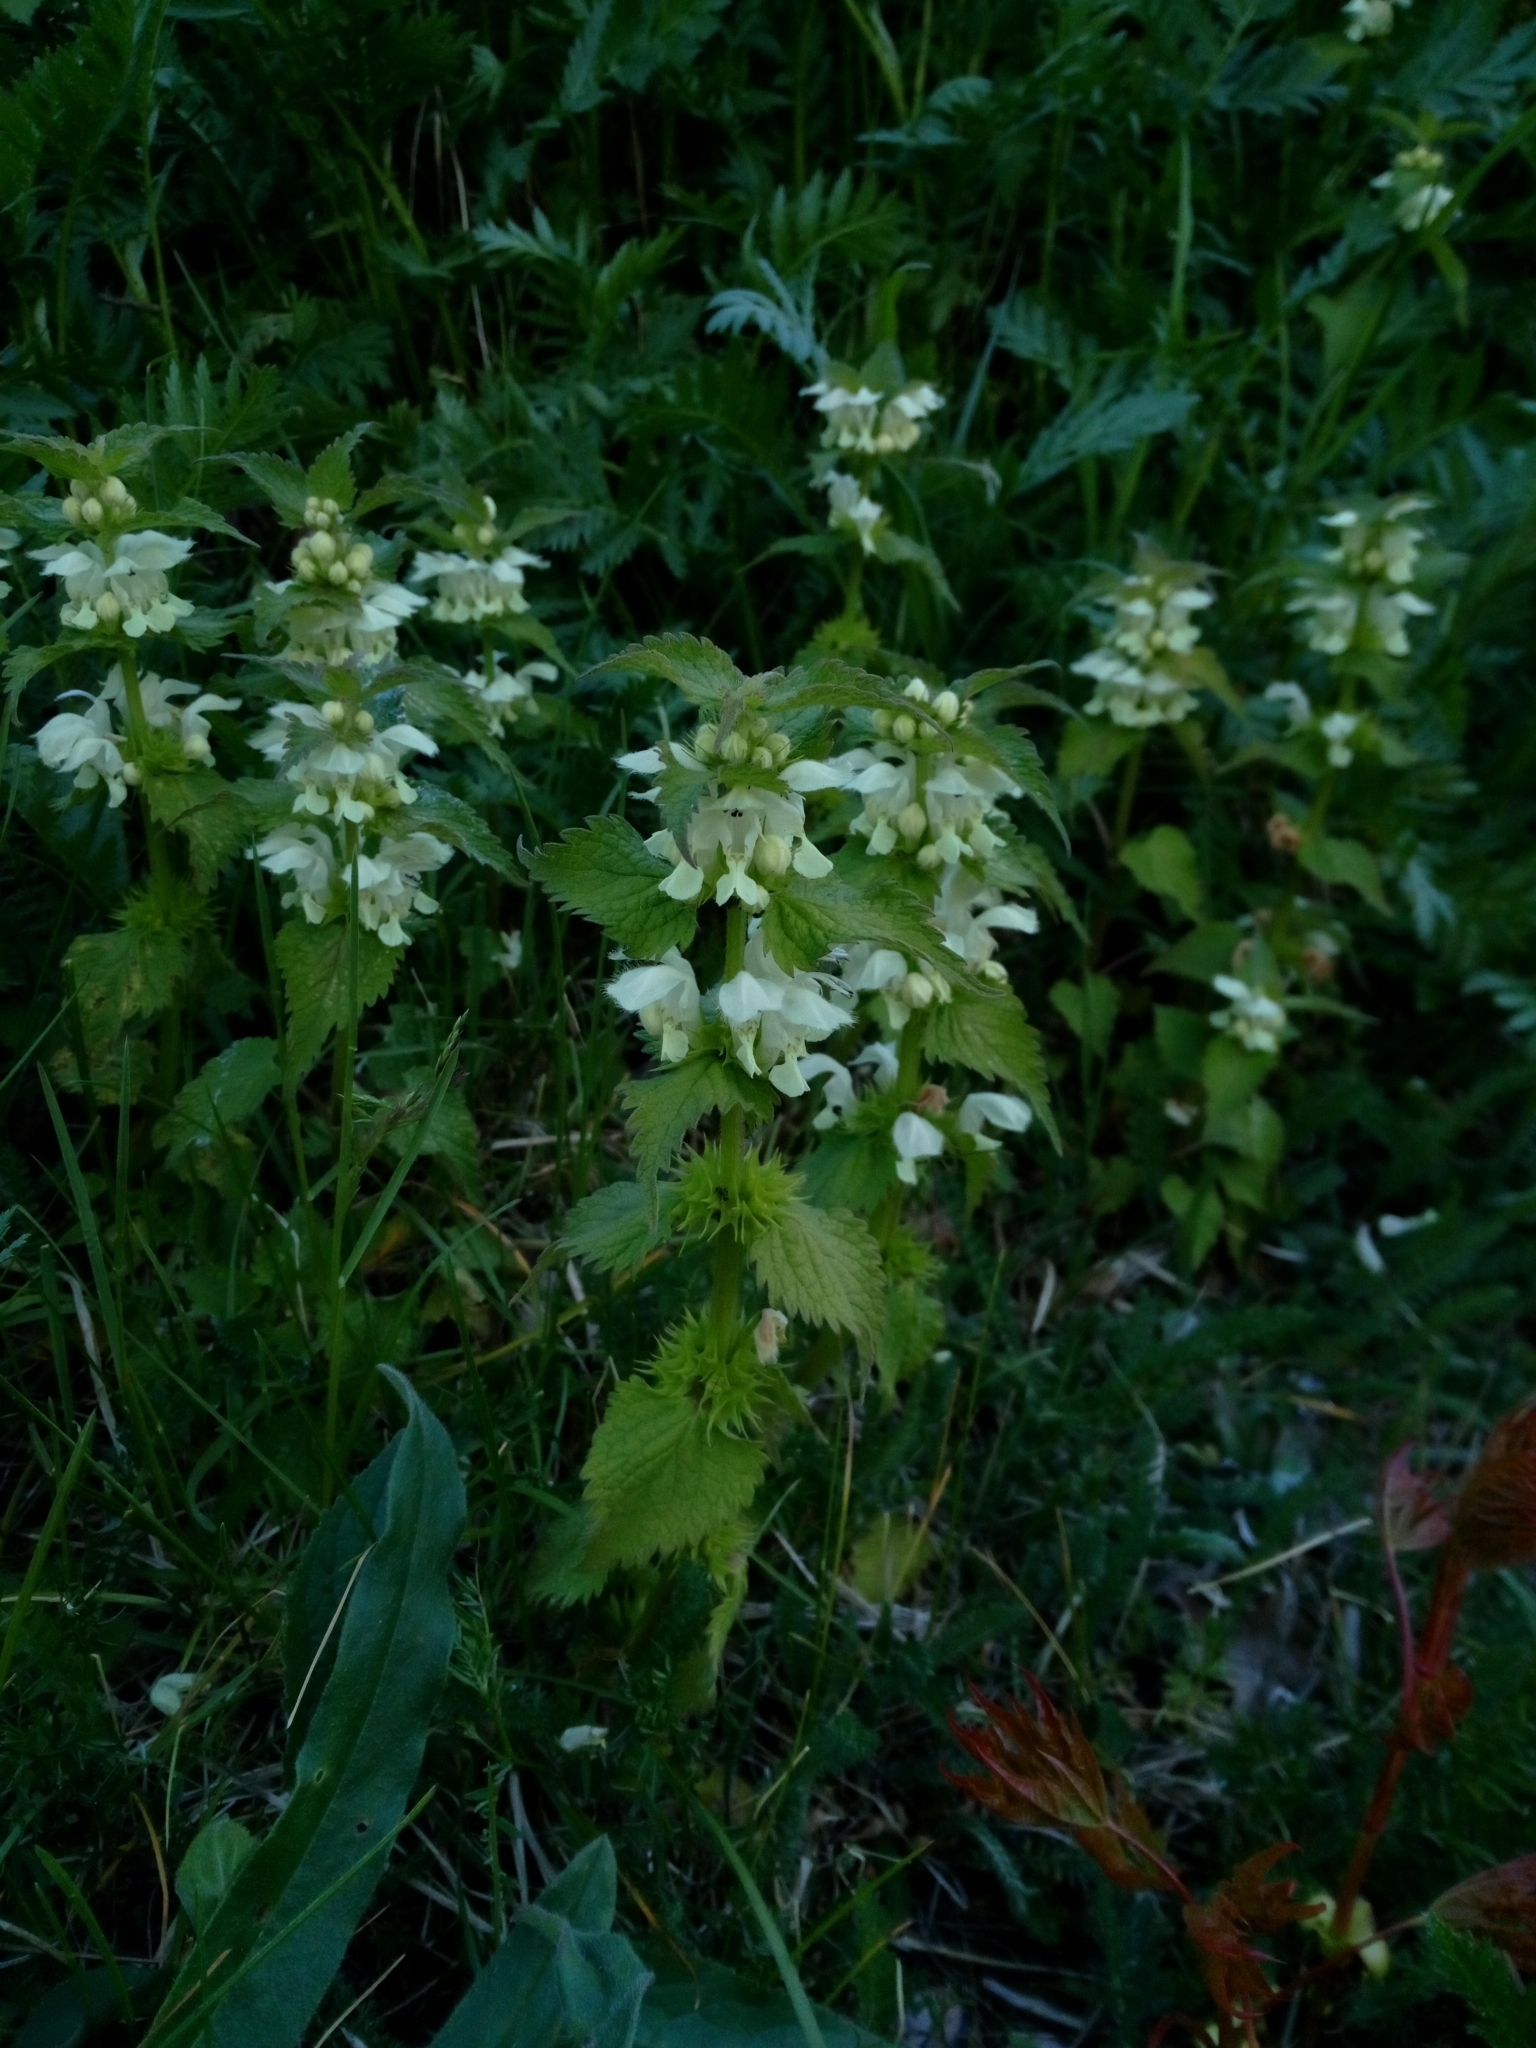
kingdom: Plantae
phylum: Tracheophyta
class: Magnoliopsida
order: Lamiales
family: Lamiaceae
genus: Lamium
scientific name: Lamium album
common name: White dead-nettle
